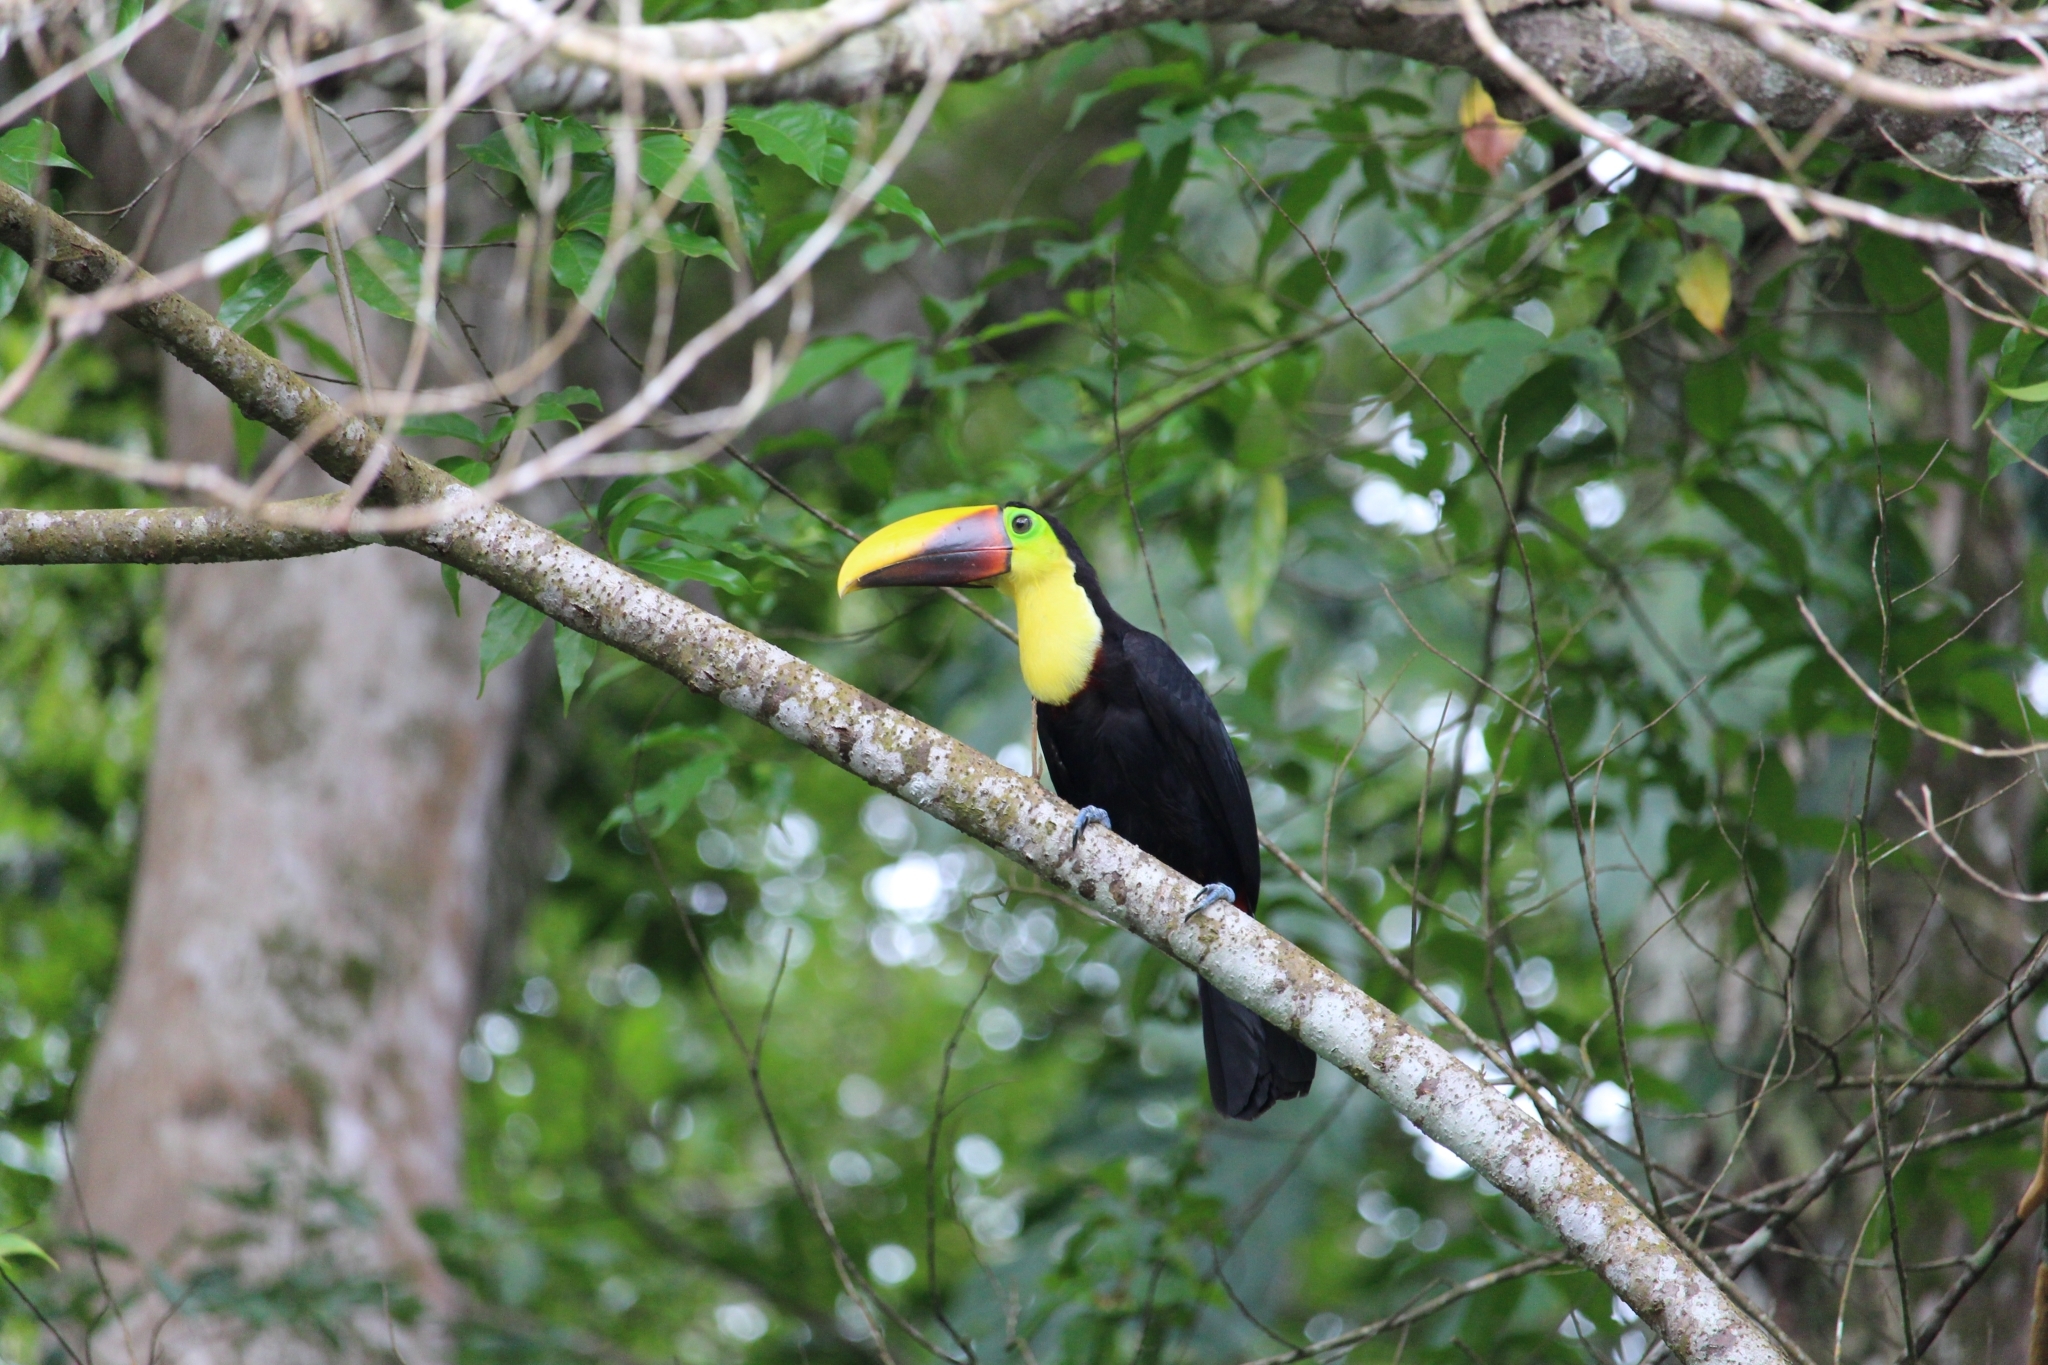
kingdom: Animalia
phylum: Chordata
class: Aves
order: Piciformes
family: Ramphastidae
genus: Ramphastos
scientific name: Ramphastos ambiguus
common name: Yellow-throated toucan
